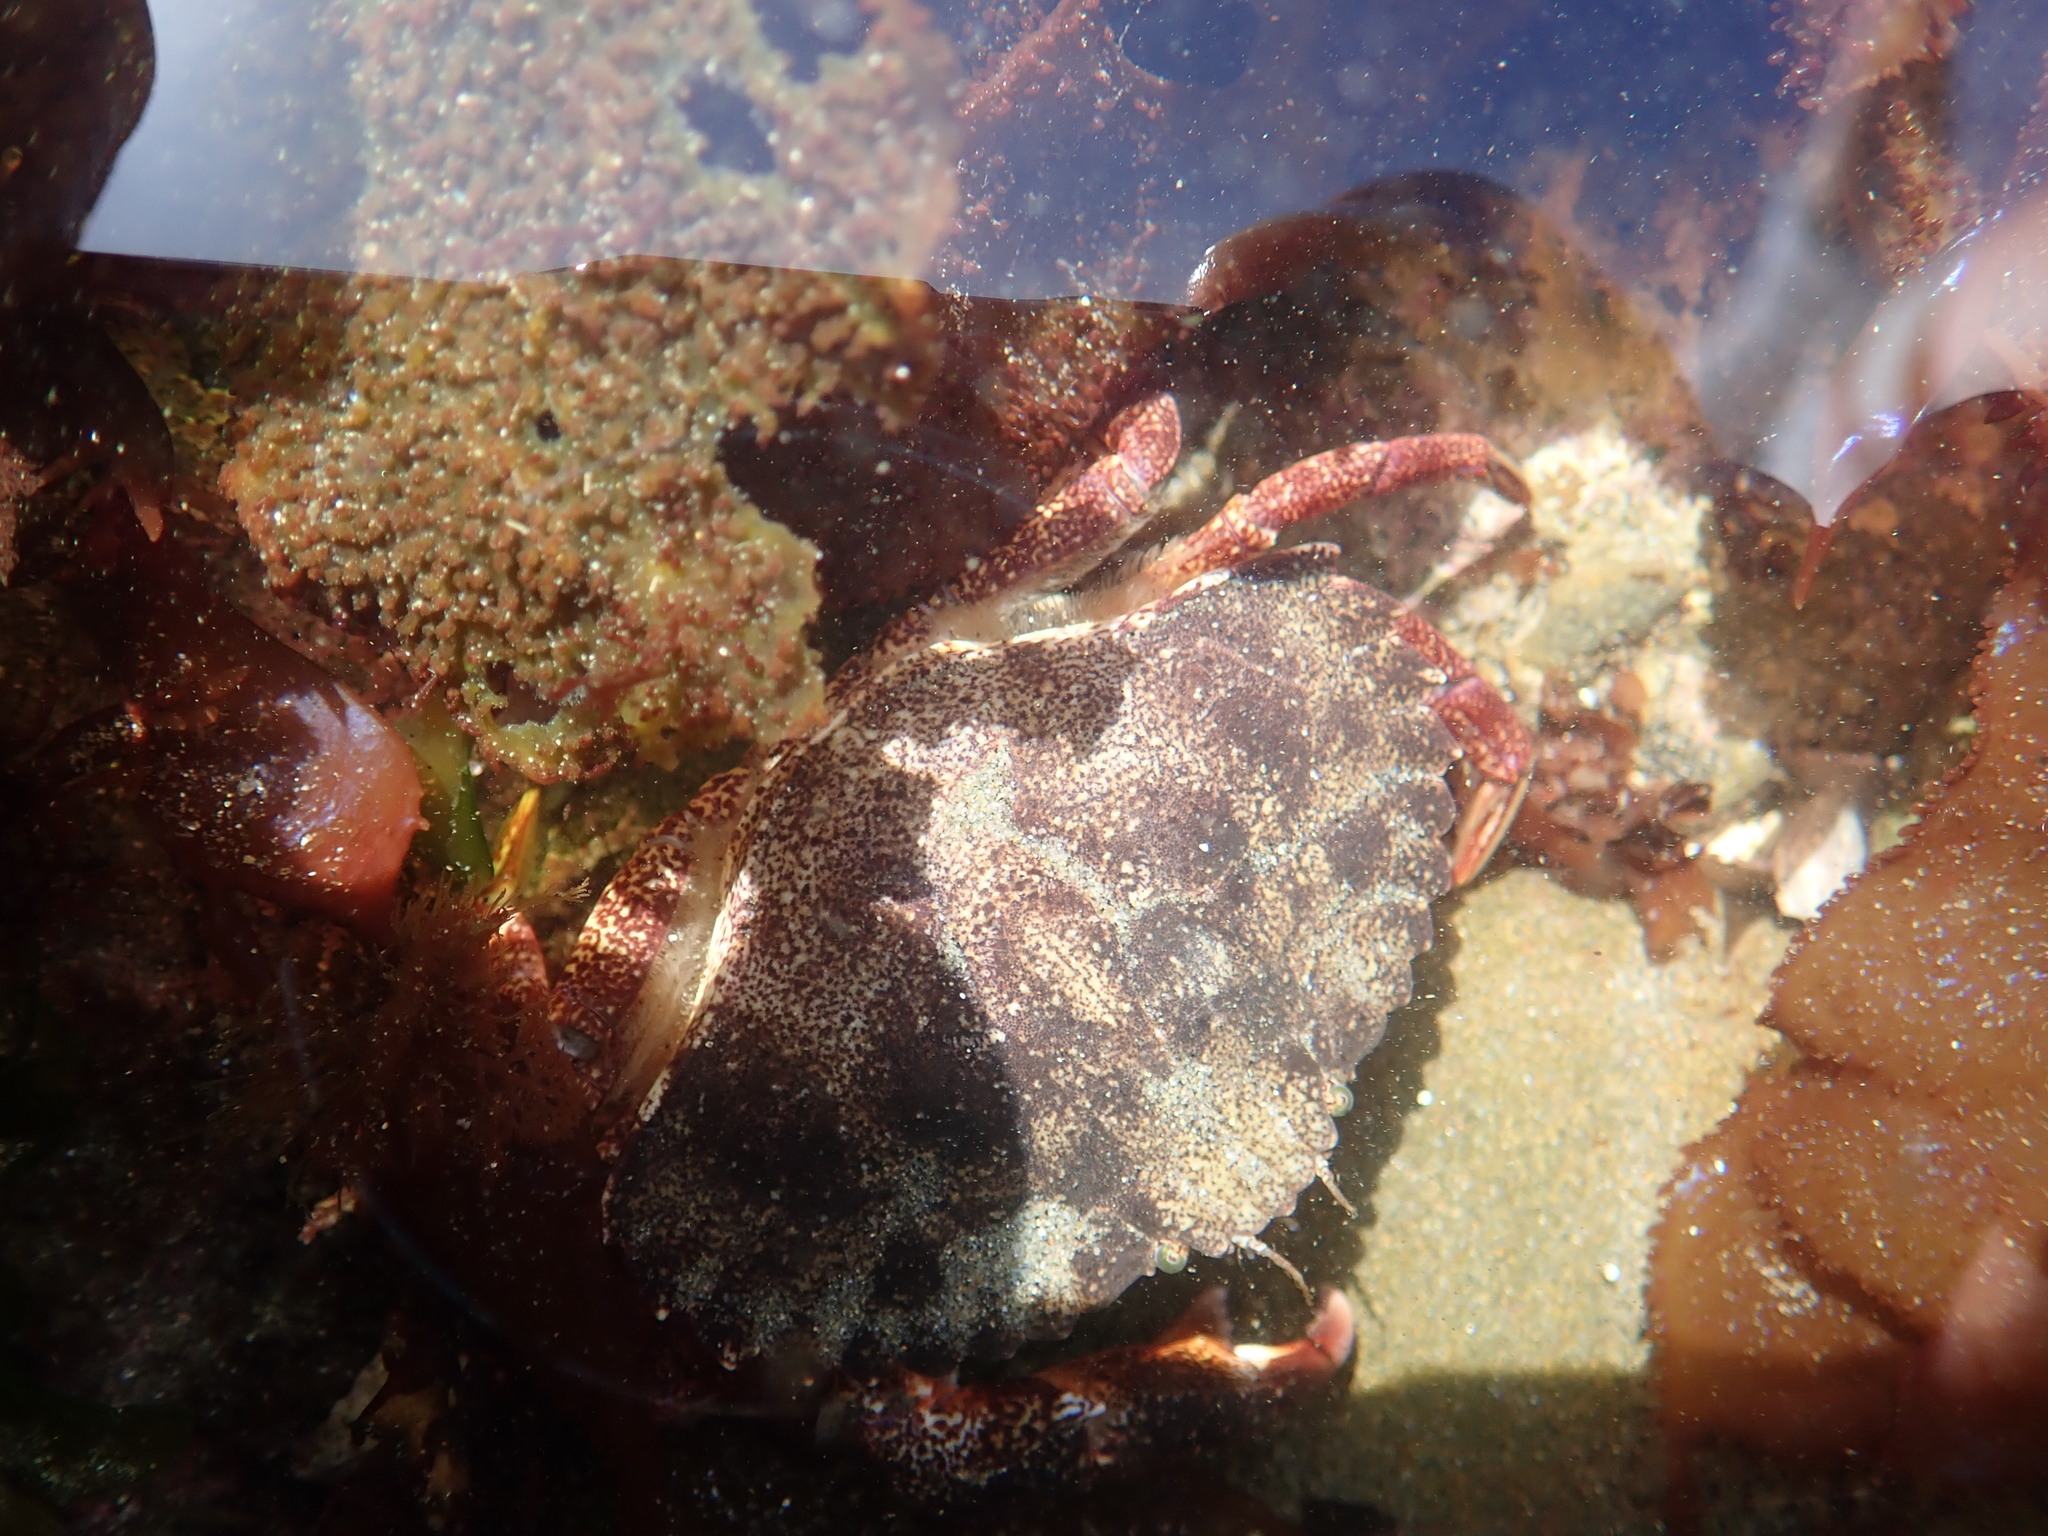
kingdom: Animalia
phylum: Arthropoda
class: Malacostraca
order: Decapoda
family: Cancridae
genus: Cancer
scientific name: Cancer productus
